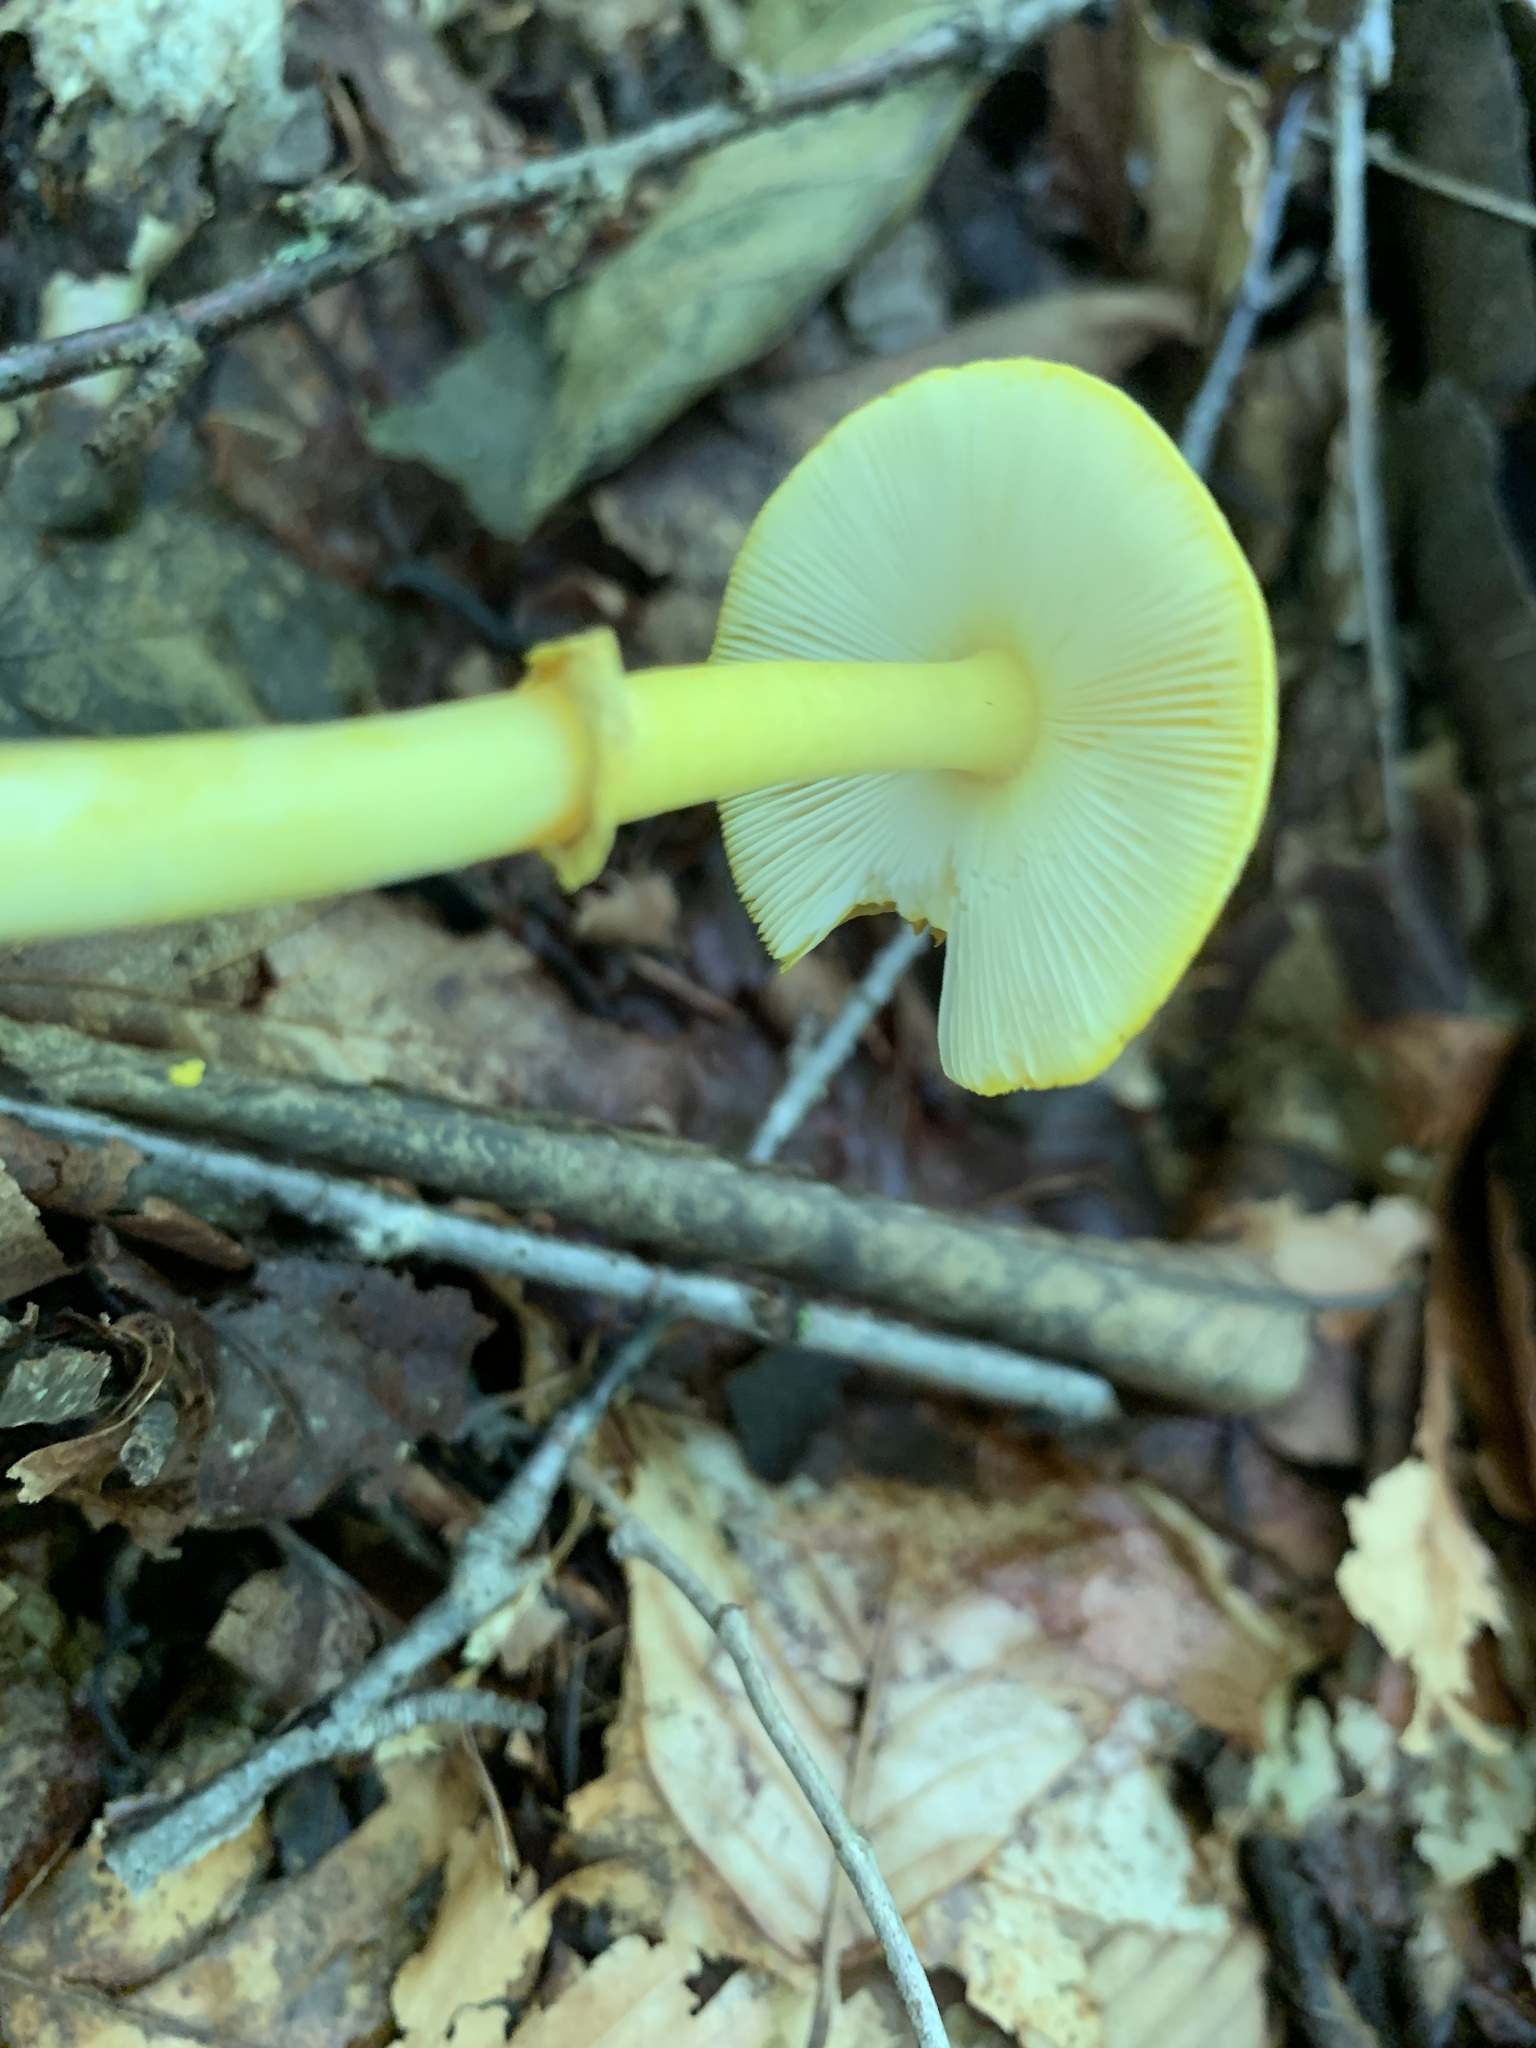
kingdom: Fungi
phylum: Basidiomycota
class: Agaricomycetes
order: Agaricales
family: Amanitaceae
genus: Amanita
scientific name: Amanita flavoconia
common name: Yellow patches
